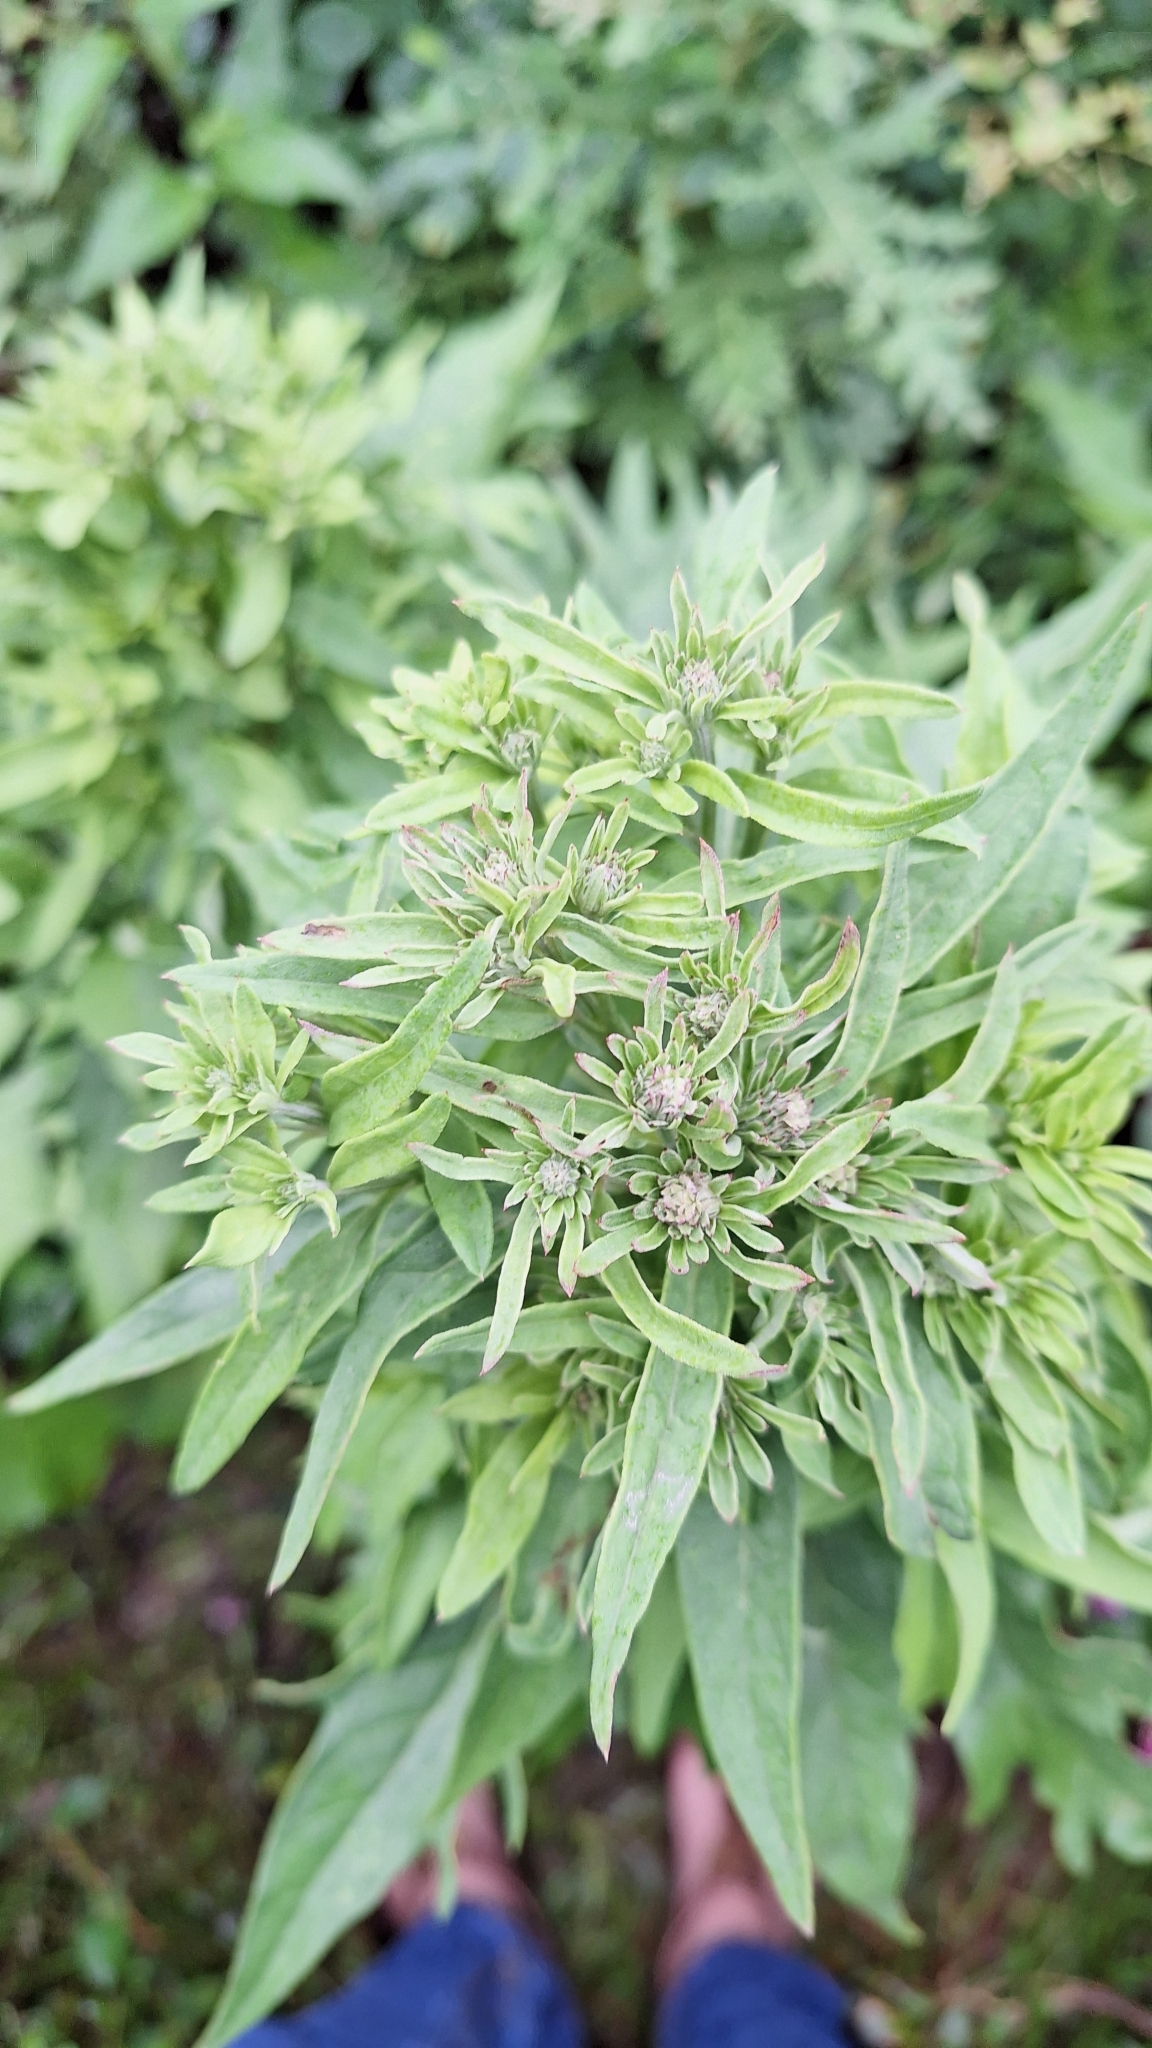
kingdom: Plantae
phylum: Tracheophyta
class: Magnoliopsida
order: Asterales
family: Asteraceae
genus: Saussurea
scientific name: Saussurea pulchella
